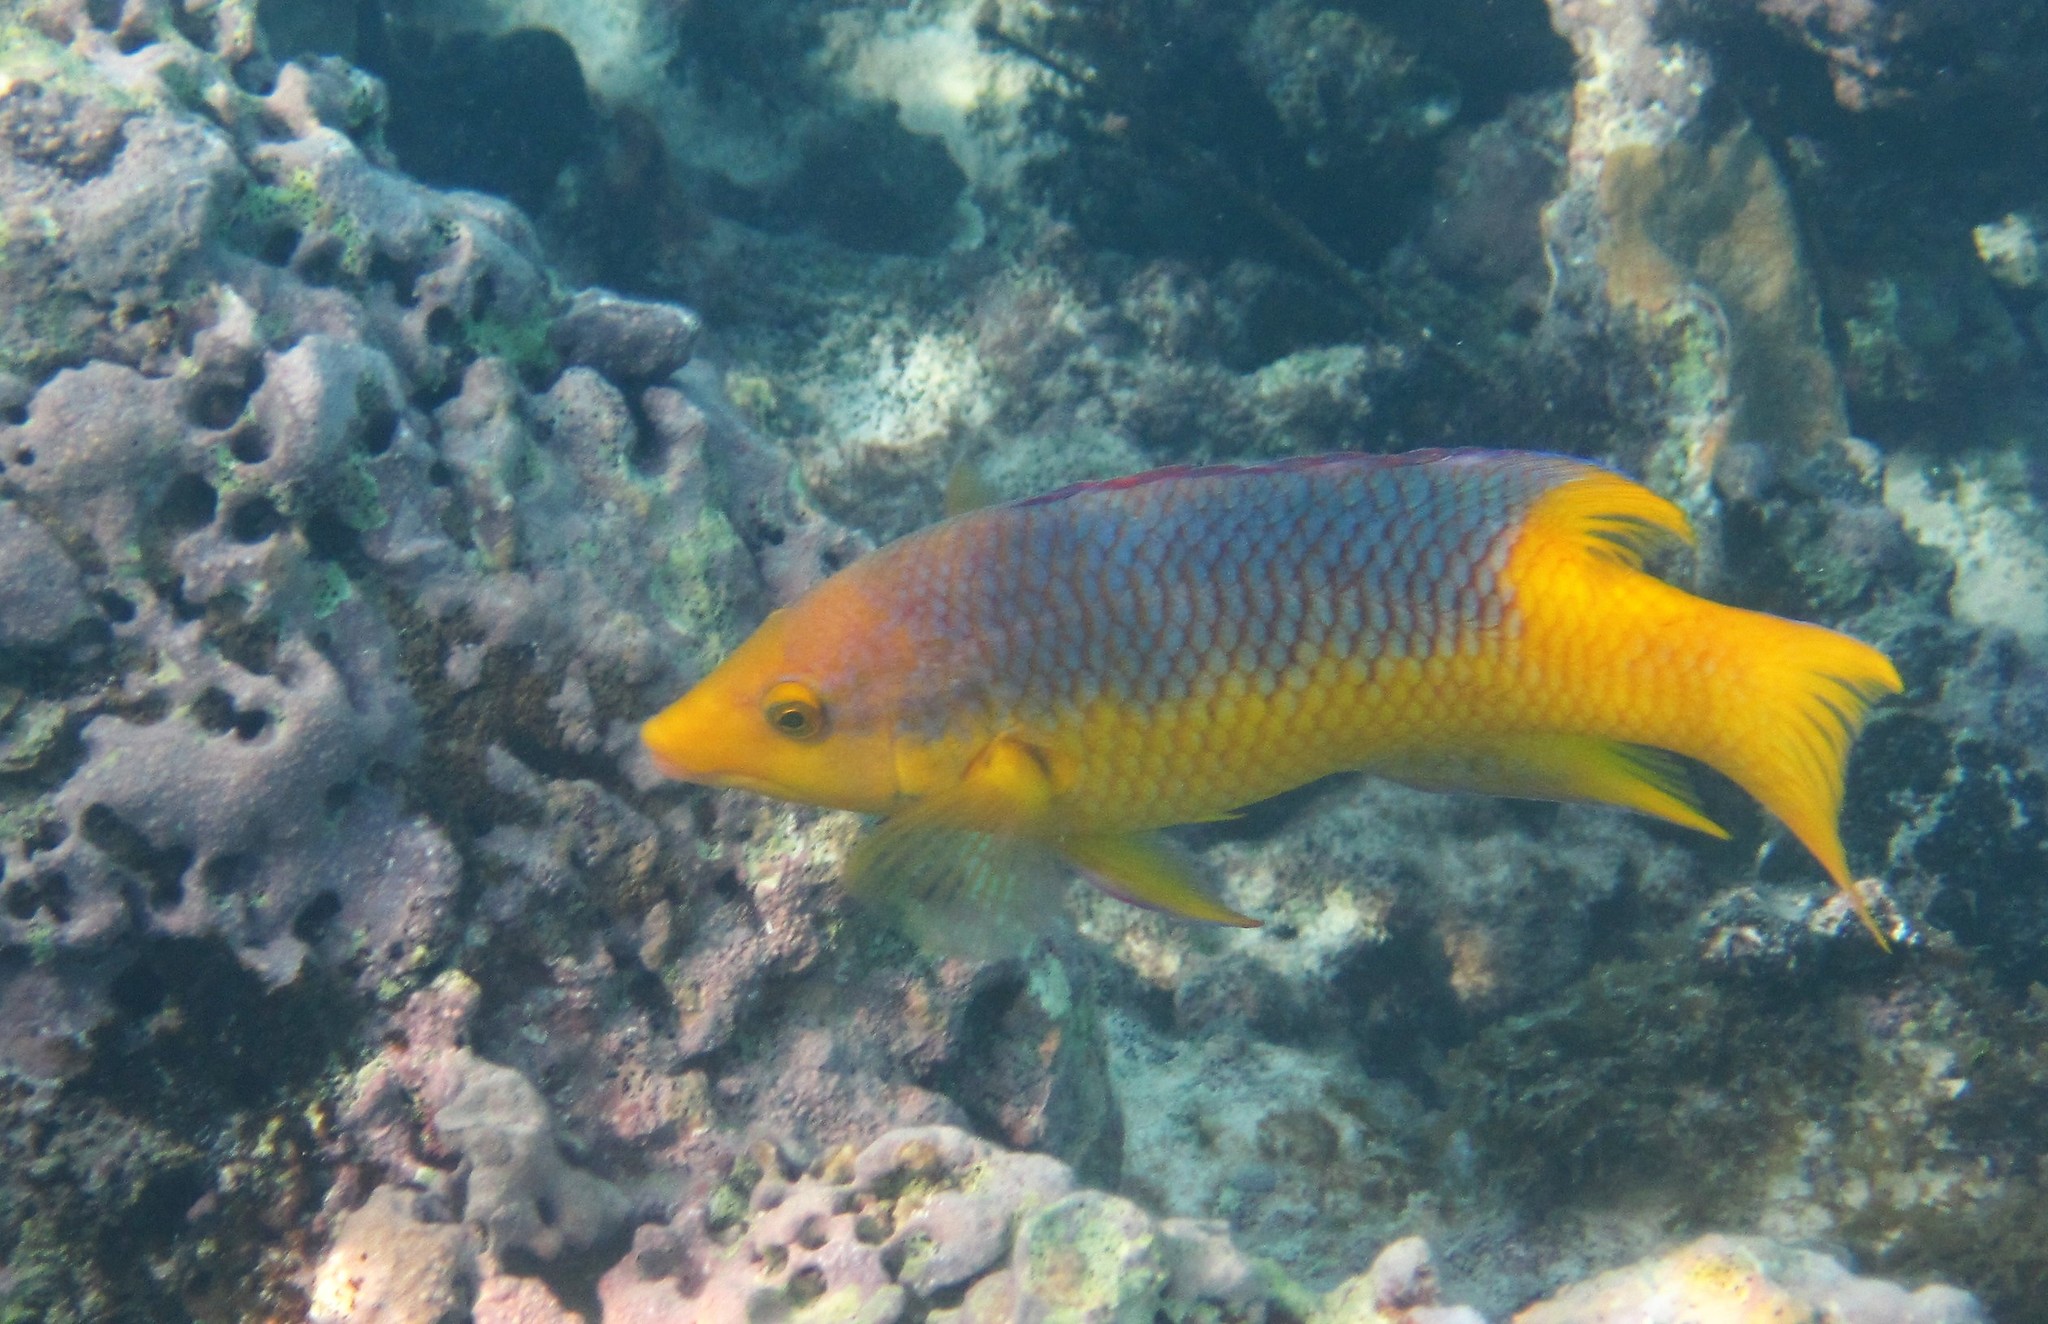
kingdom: Animalia
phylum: Chordata
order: Perciformes
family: Labridae
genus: Bodianus
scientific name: Bodianus rufus
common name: Spanish hogfish
